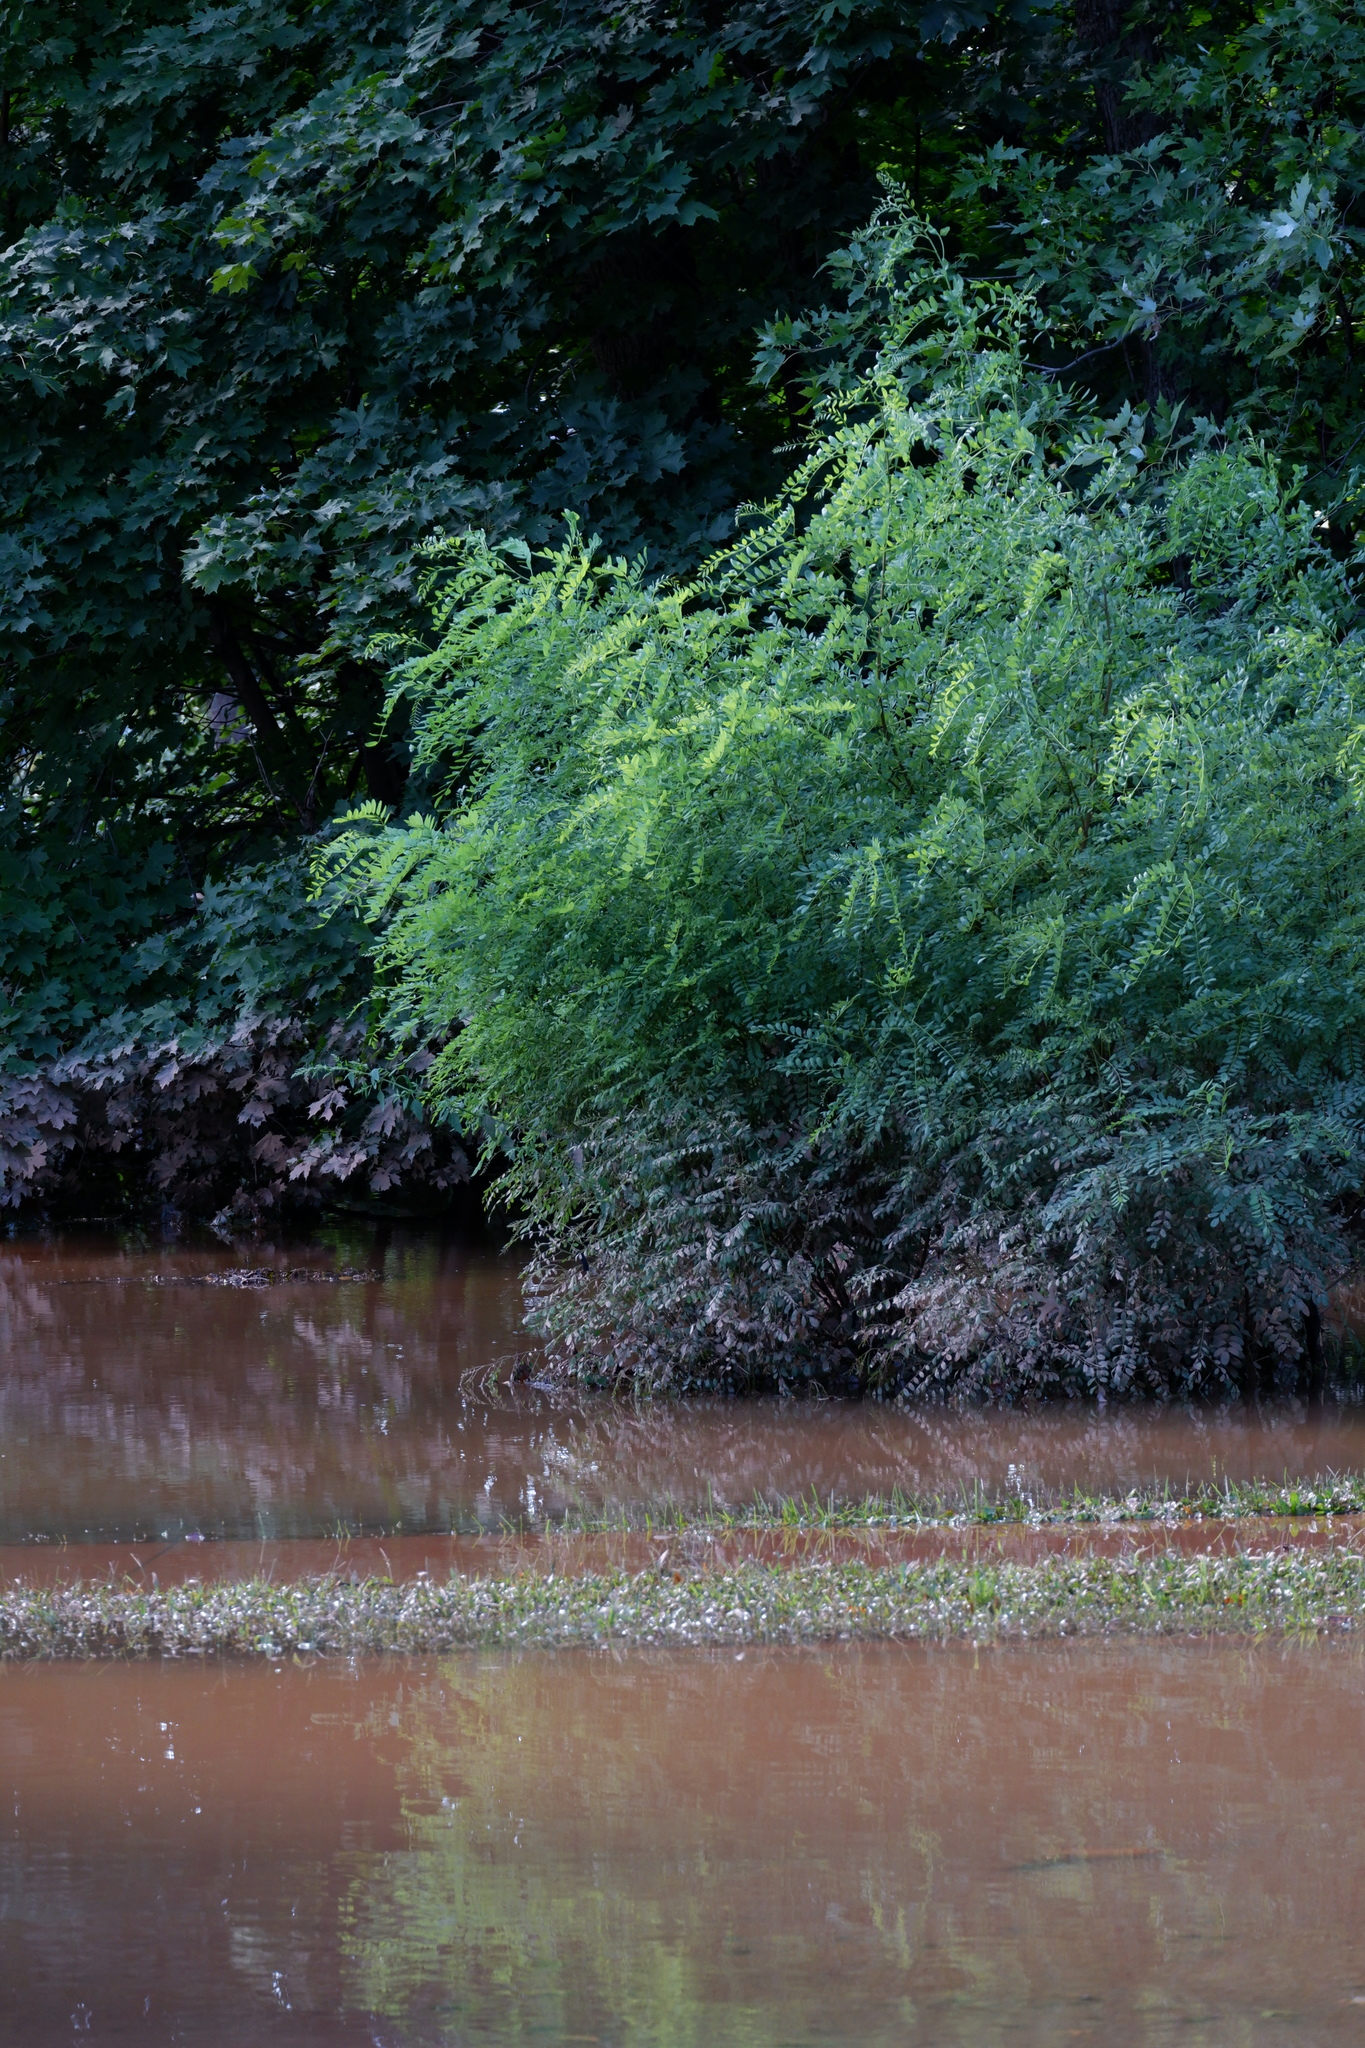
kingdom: Plantae
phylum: Tracheophyta
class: Magnoliopsida
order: Fabales
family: Fabaceae
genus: Robinia
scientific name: Robinia pseudoacacia
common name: Black locust
